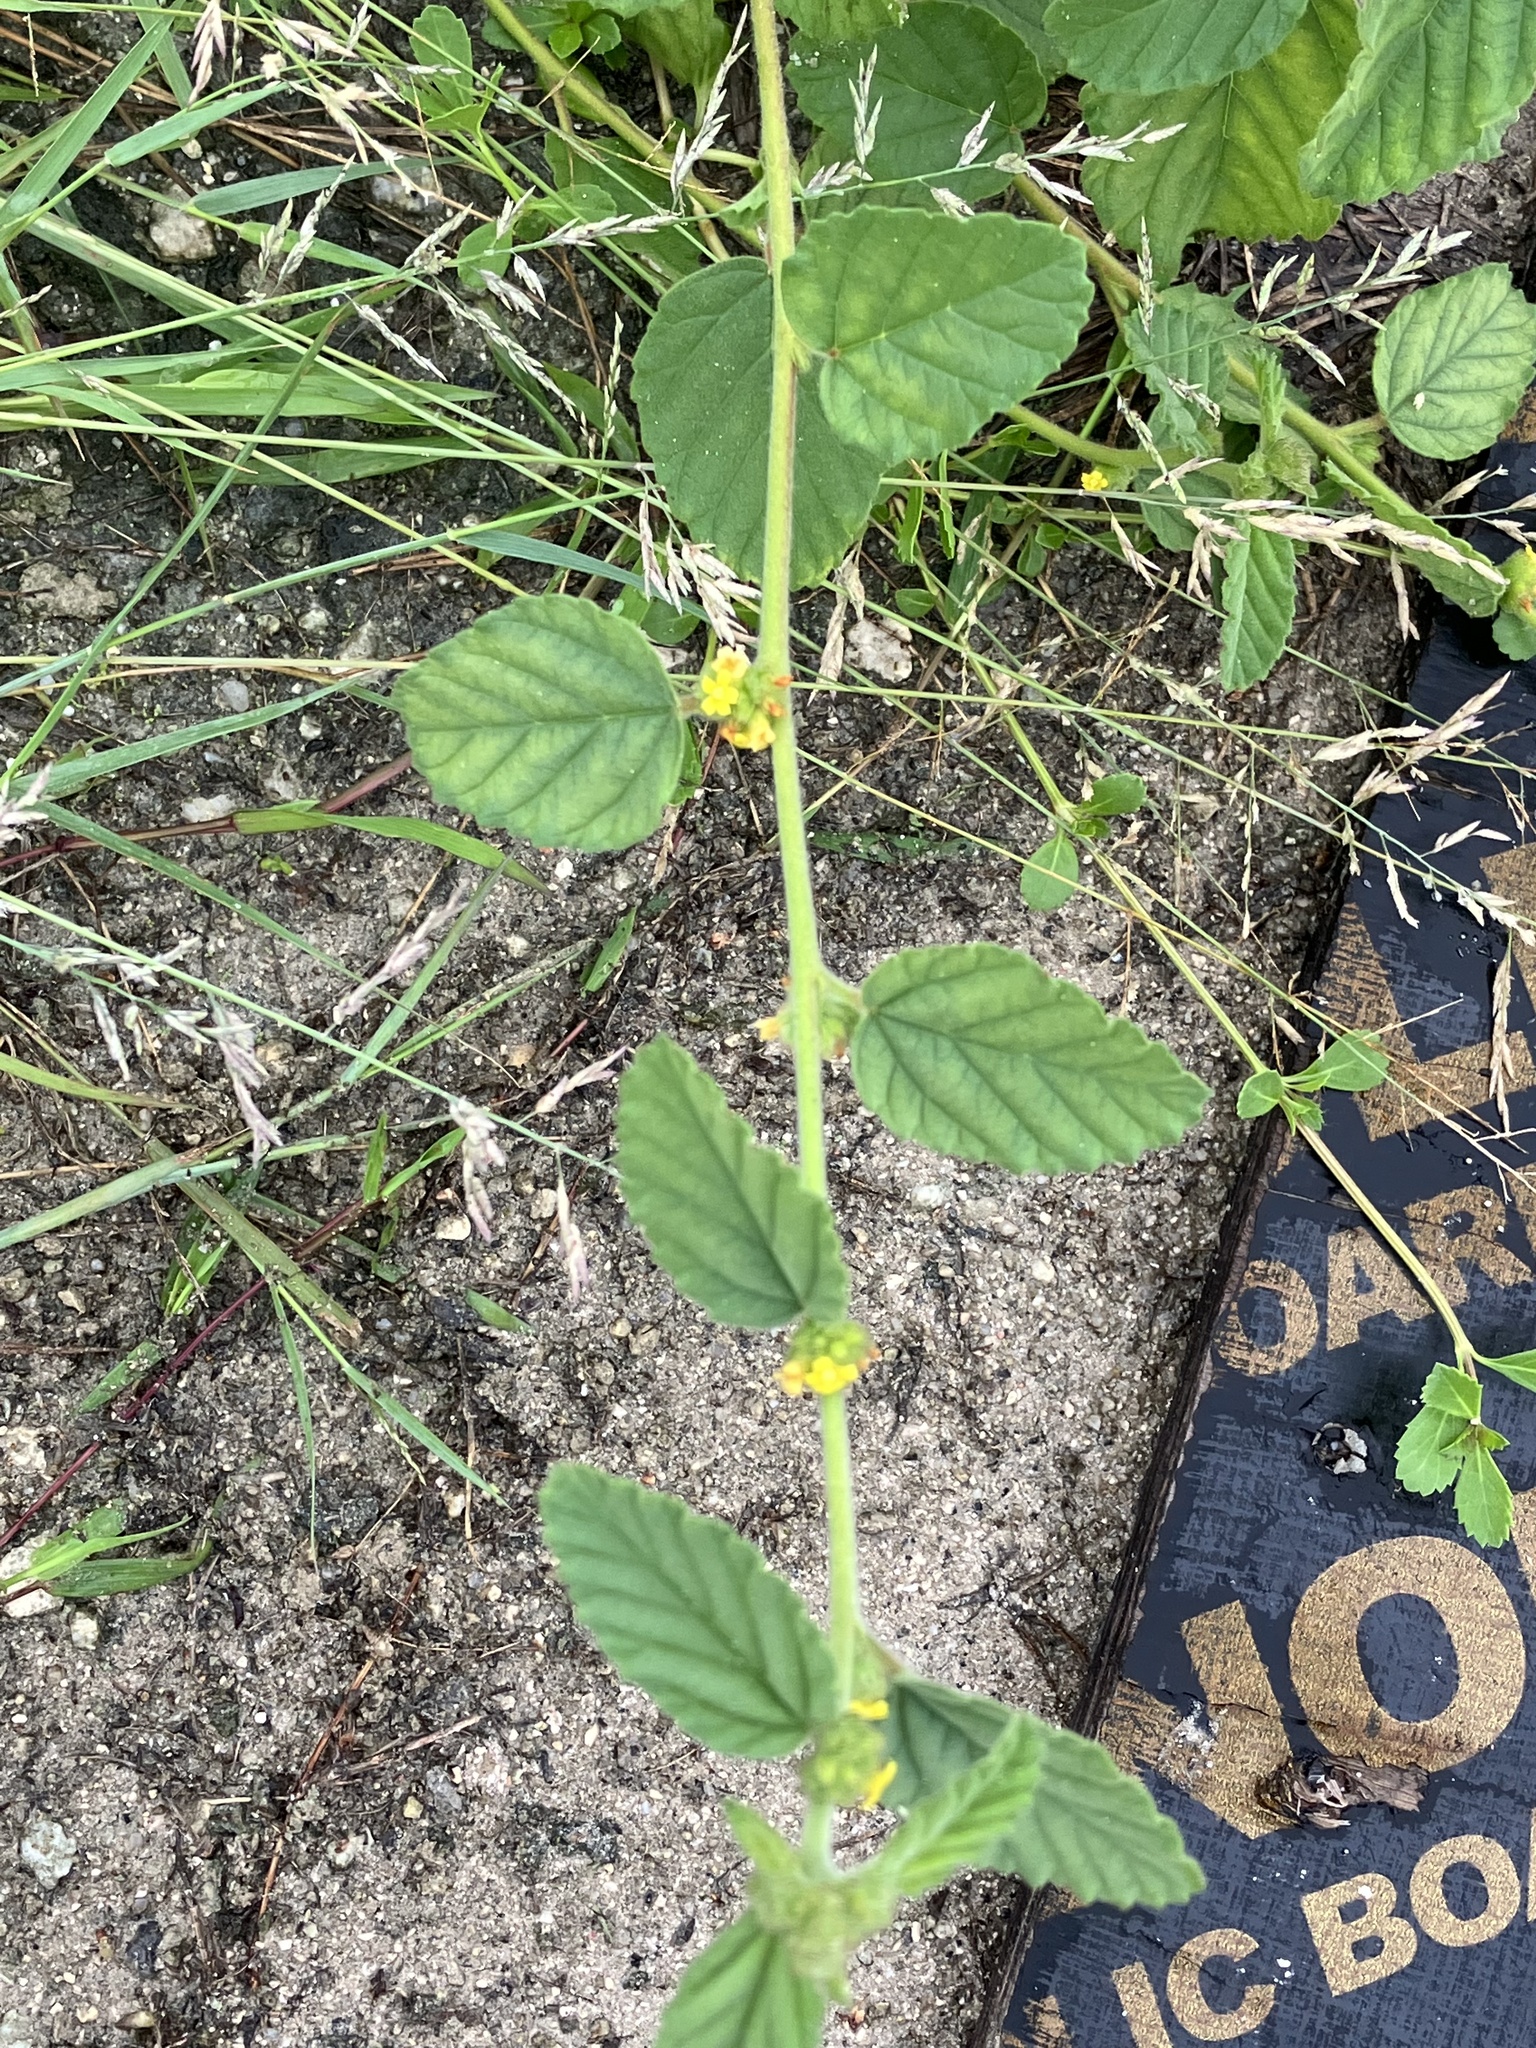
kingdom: Plantae
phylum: Tracheophyta
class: Magnoliopsida
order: Malvales
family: Malvaceae
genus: Waltheria
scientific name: Waltheria indica
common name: Leather-coat
